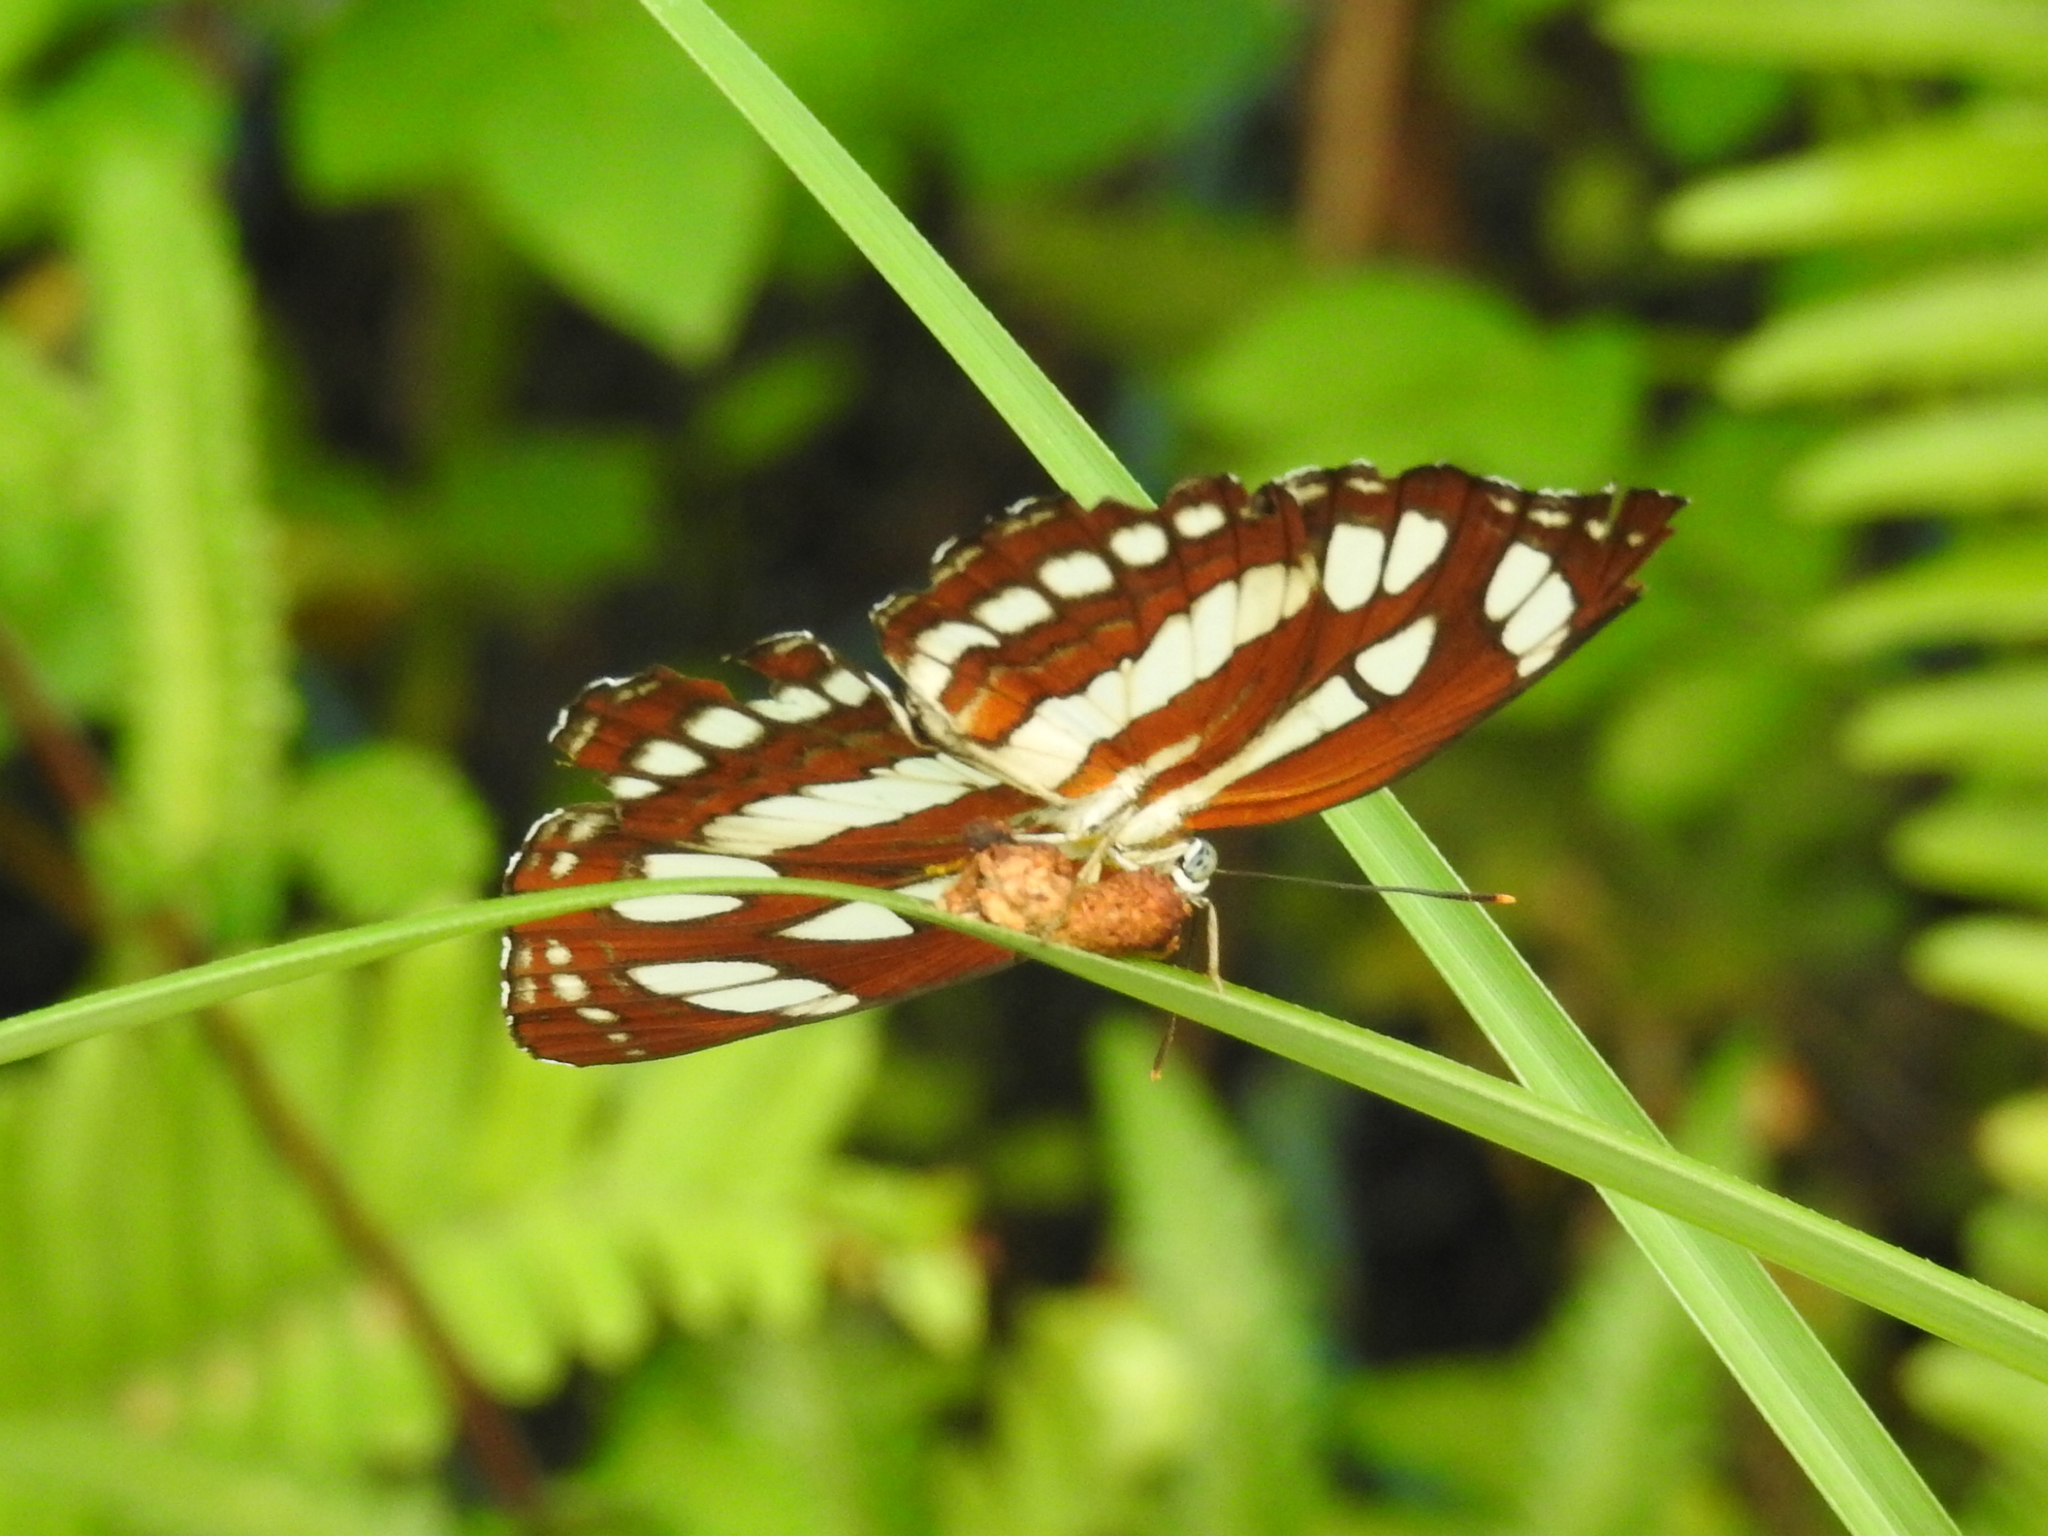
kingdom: Animalia
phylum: Arthropoda
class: Insecta
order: Lepidoptera
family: Nymphalidae
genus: Neptis
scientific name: Neptis hylas
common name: Common sailer
